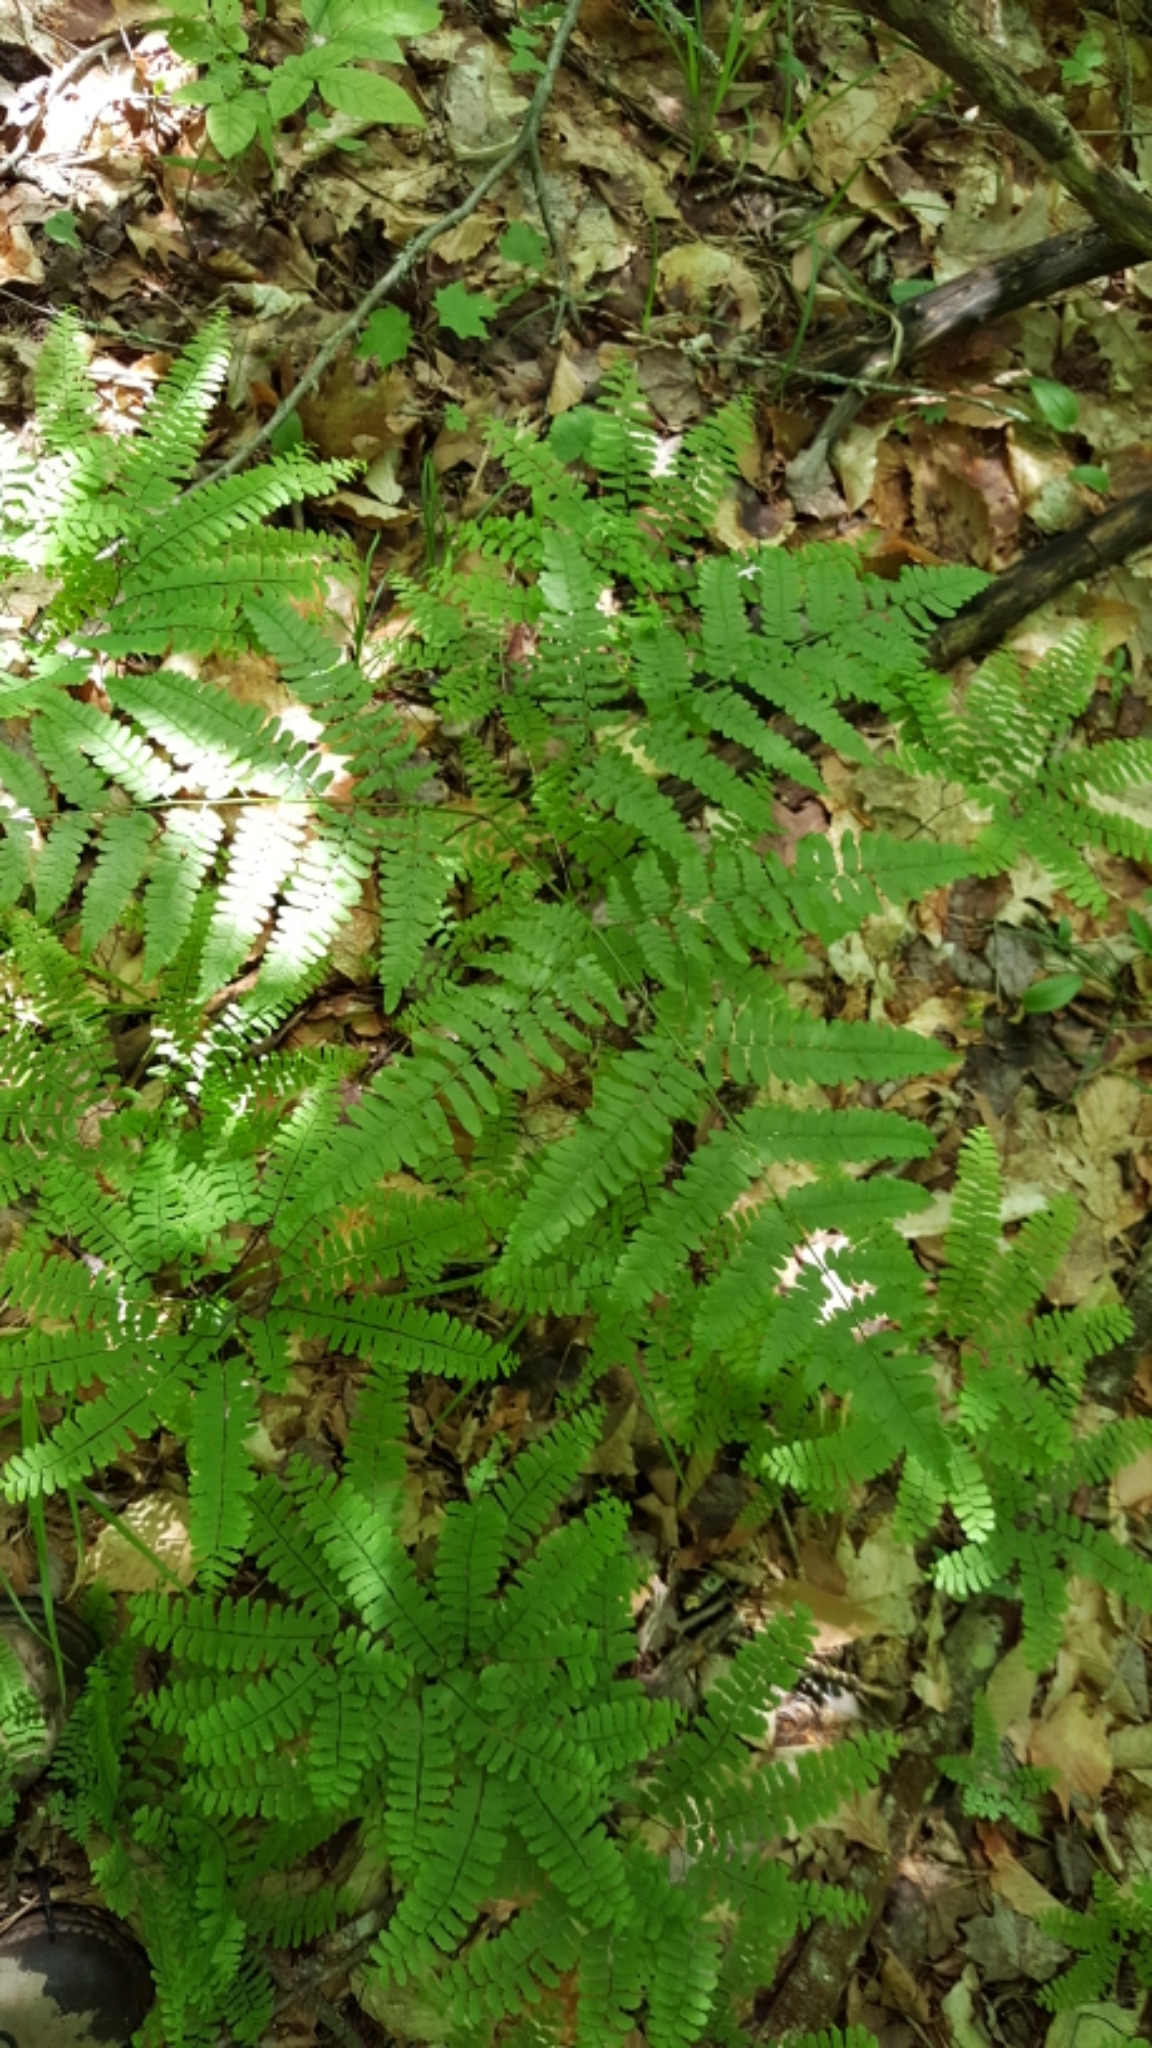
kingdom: Plantae
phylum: Tracheophyta
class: Polypodiopsida
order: Polypodiales
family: Dennstaedtiaceae
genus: Pteridium
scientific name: Pteridium aquilinum
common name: Bracken
